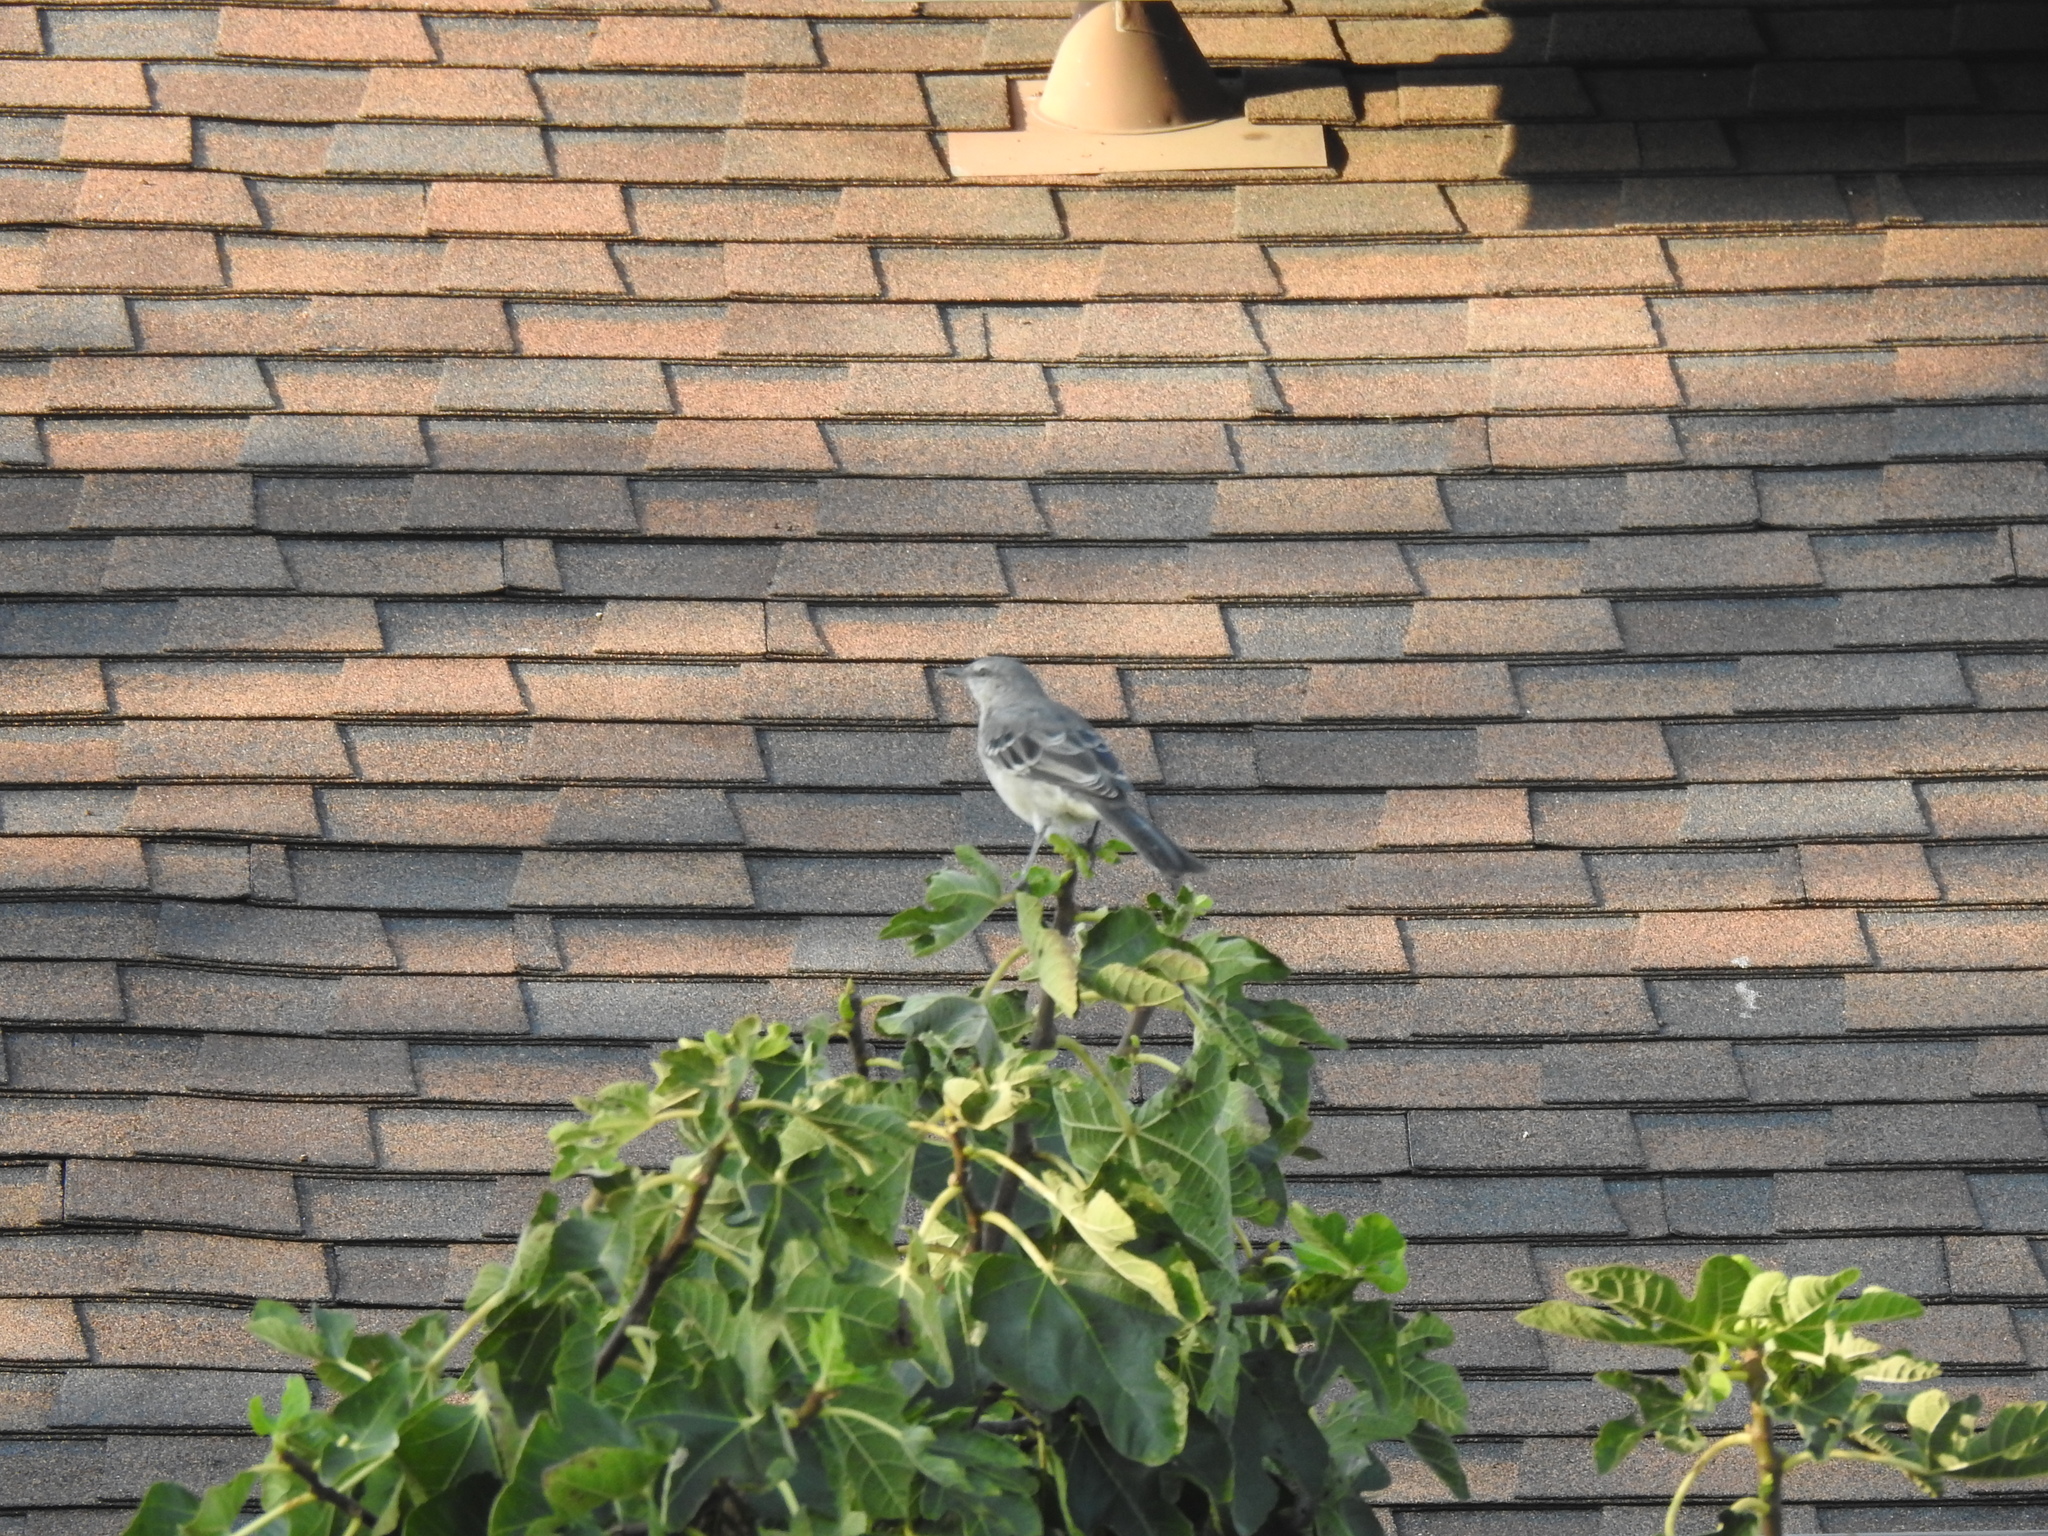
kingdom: Animalia
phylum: Chordata
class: Aves
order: Passeriformes
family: Mimidae
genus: Mimus
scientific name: Mimus polyglottos
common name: Northern mockingbird
